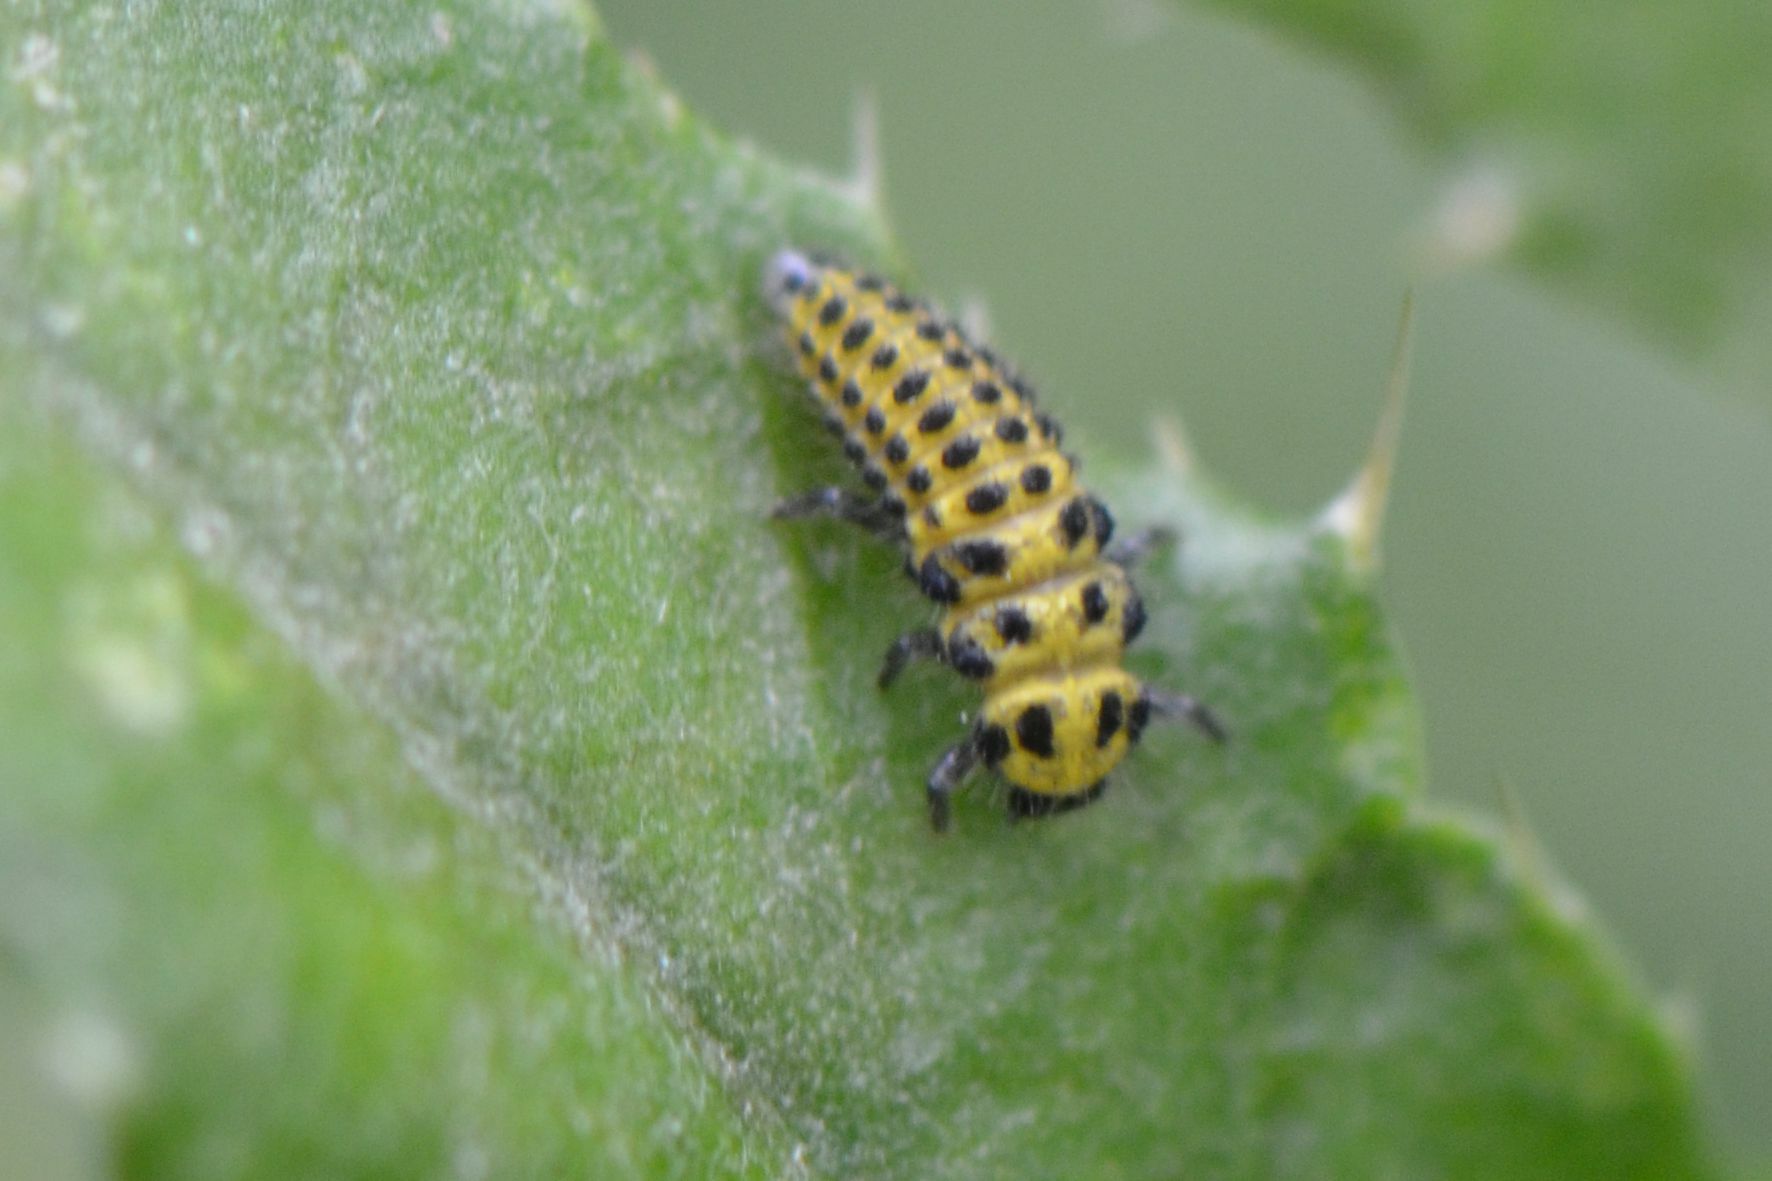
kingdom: Animalia
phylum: Arthropoda
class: Insecta
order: Coleoptera
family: Coccinellidae
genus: Psyllobora
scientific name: Psyllobora vigintiduopunctata
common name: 22-spot ladybird
